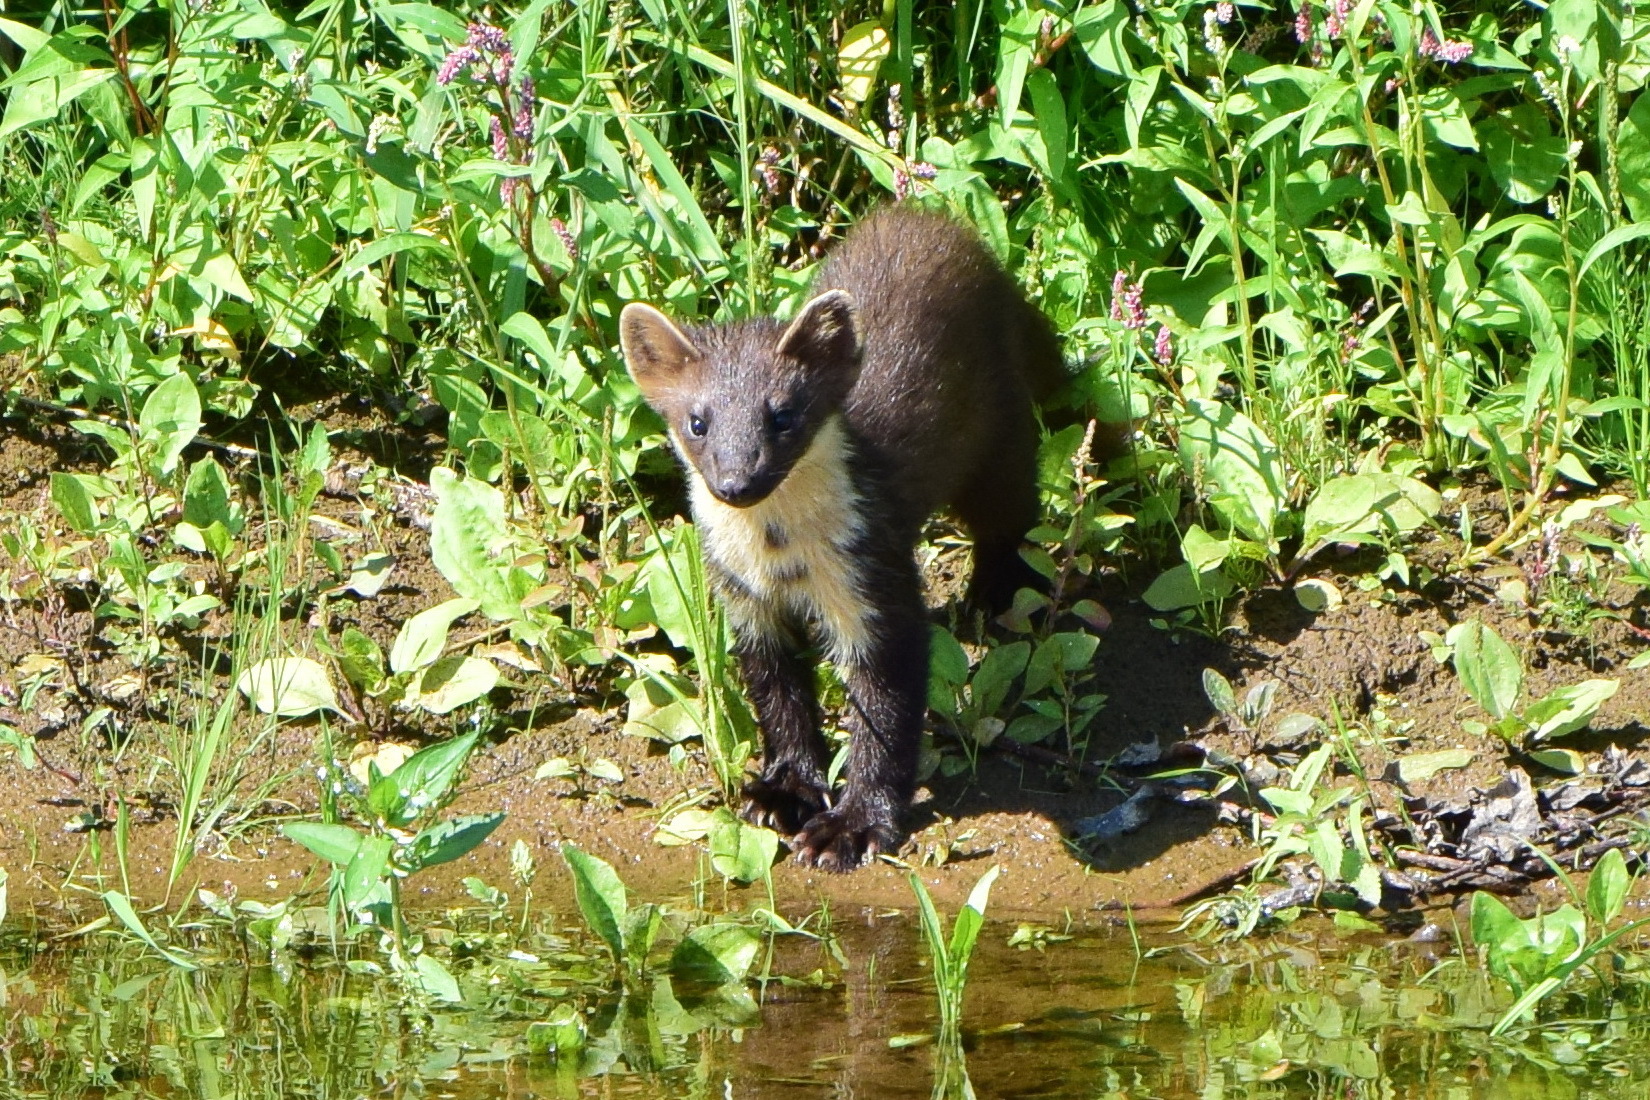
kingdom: Animalia
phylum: Chordata
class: Mammalia
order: Carnivora
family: Mustelidae
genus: Martes
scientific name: Martes martes
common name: European pine marten
